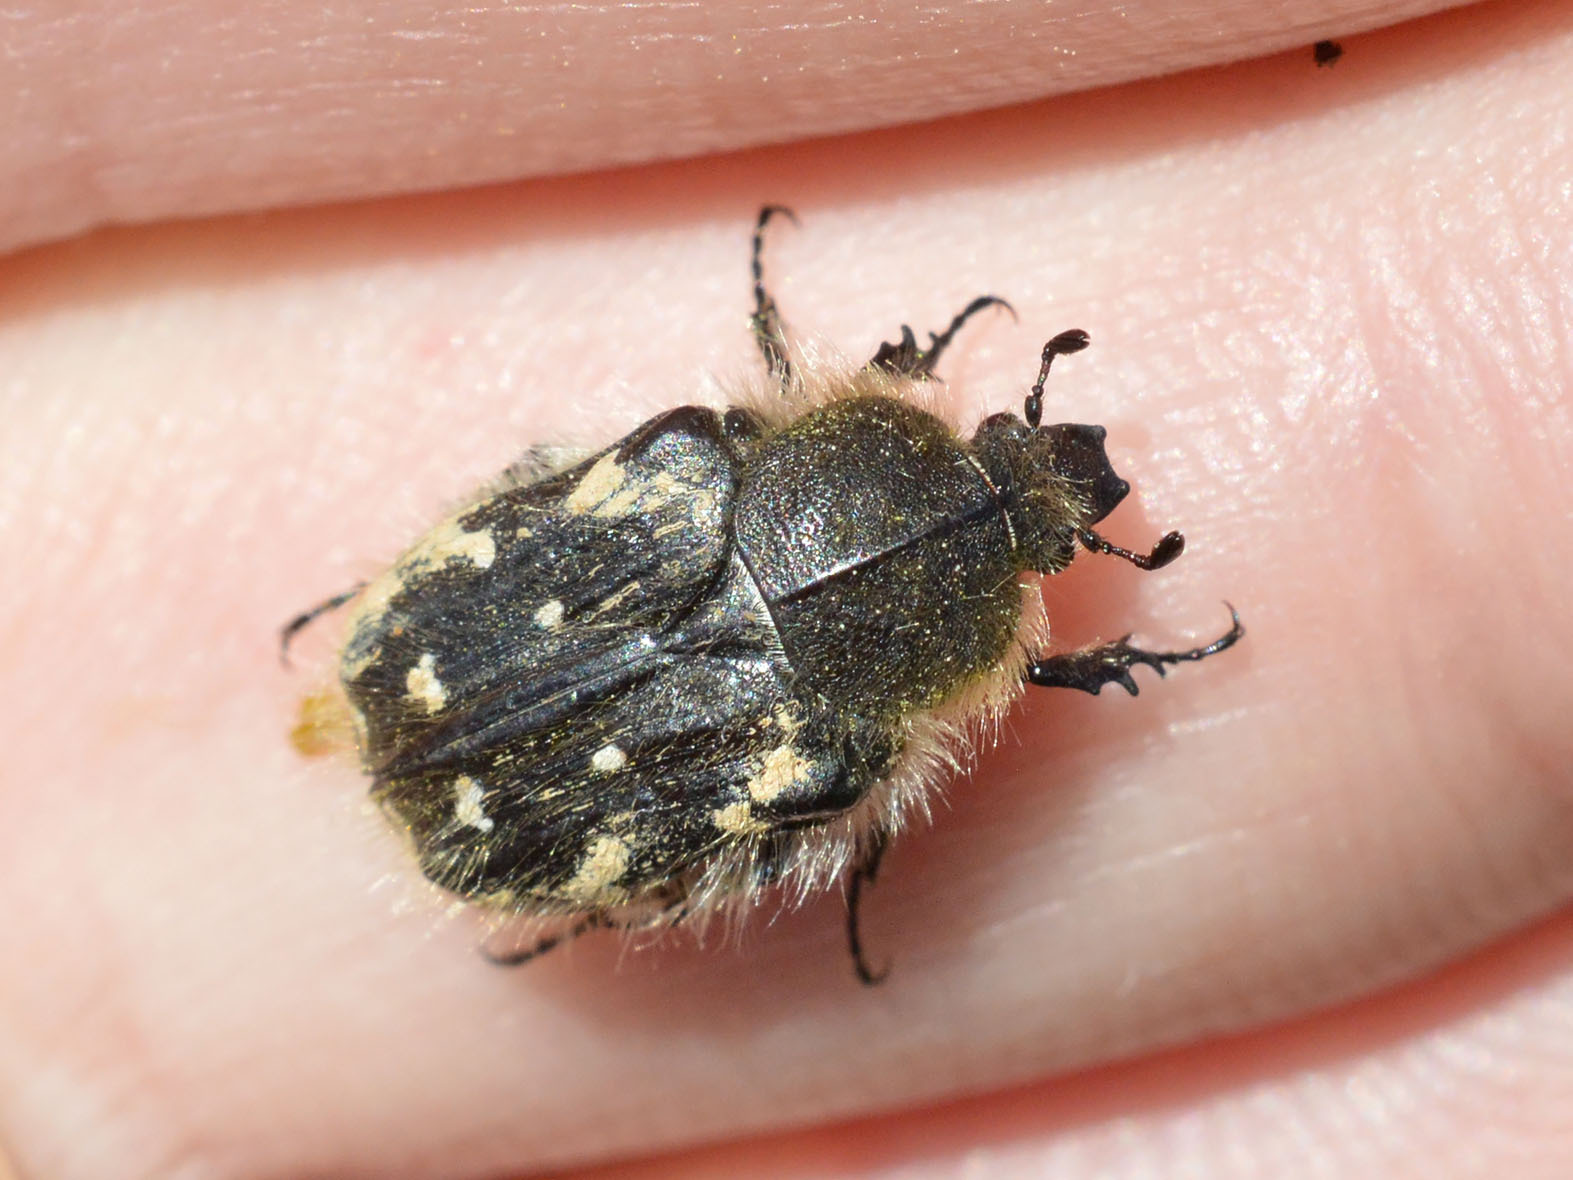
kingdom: Animalia
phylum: Arthropoda
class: Insecta
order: Coleoptera
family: Scarabaeidae
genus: Tropinota
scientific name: Tropinota hirta
